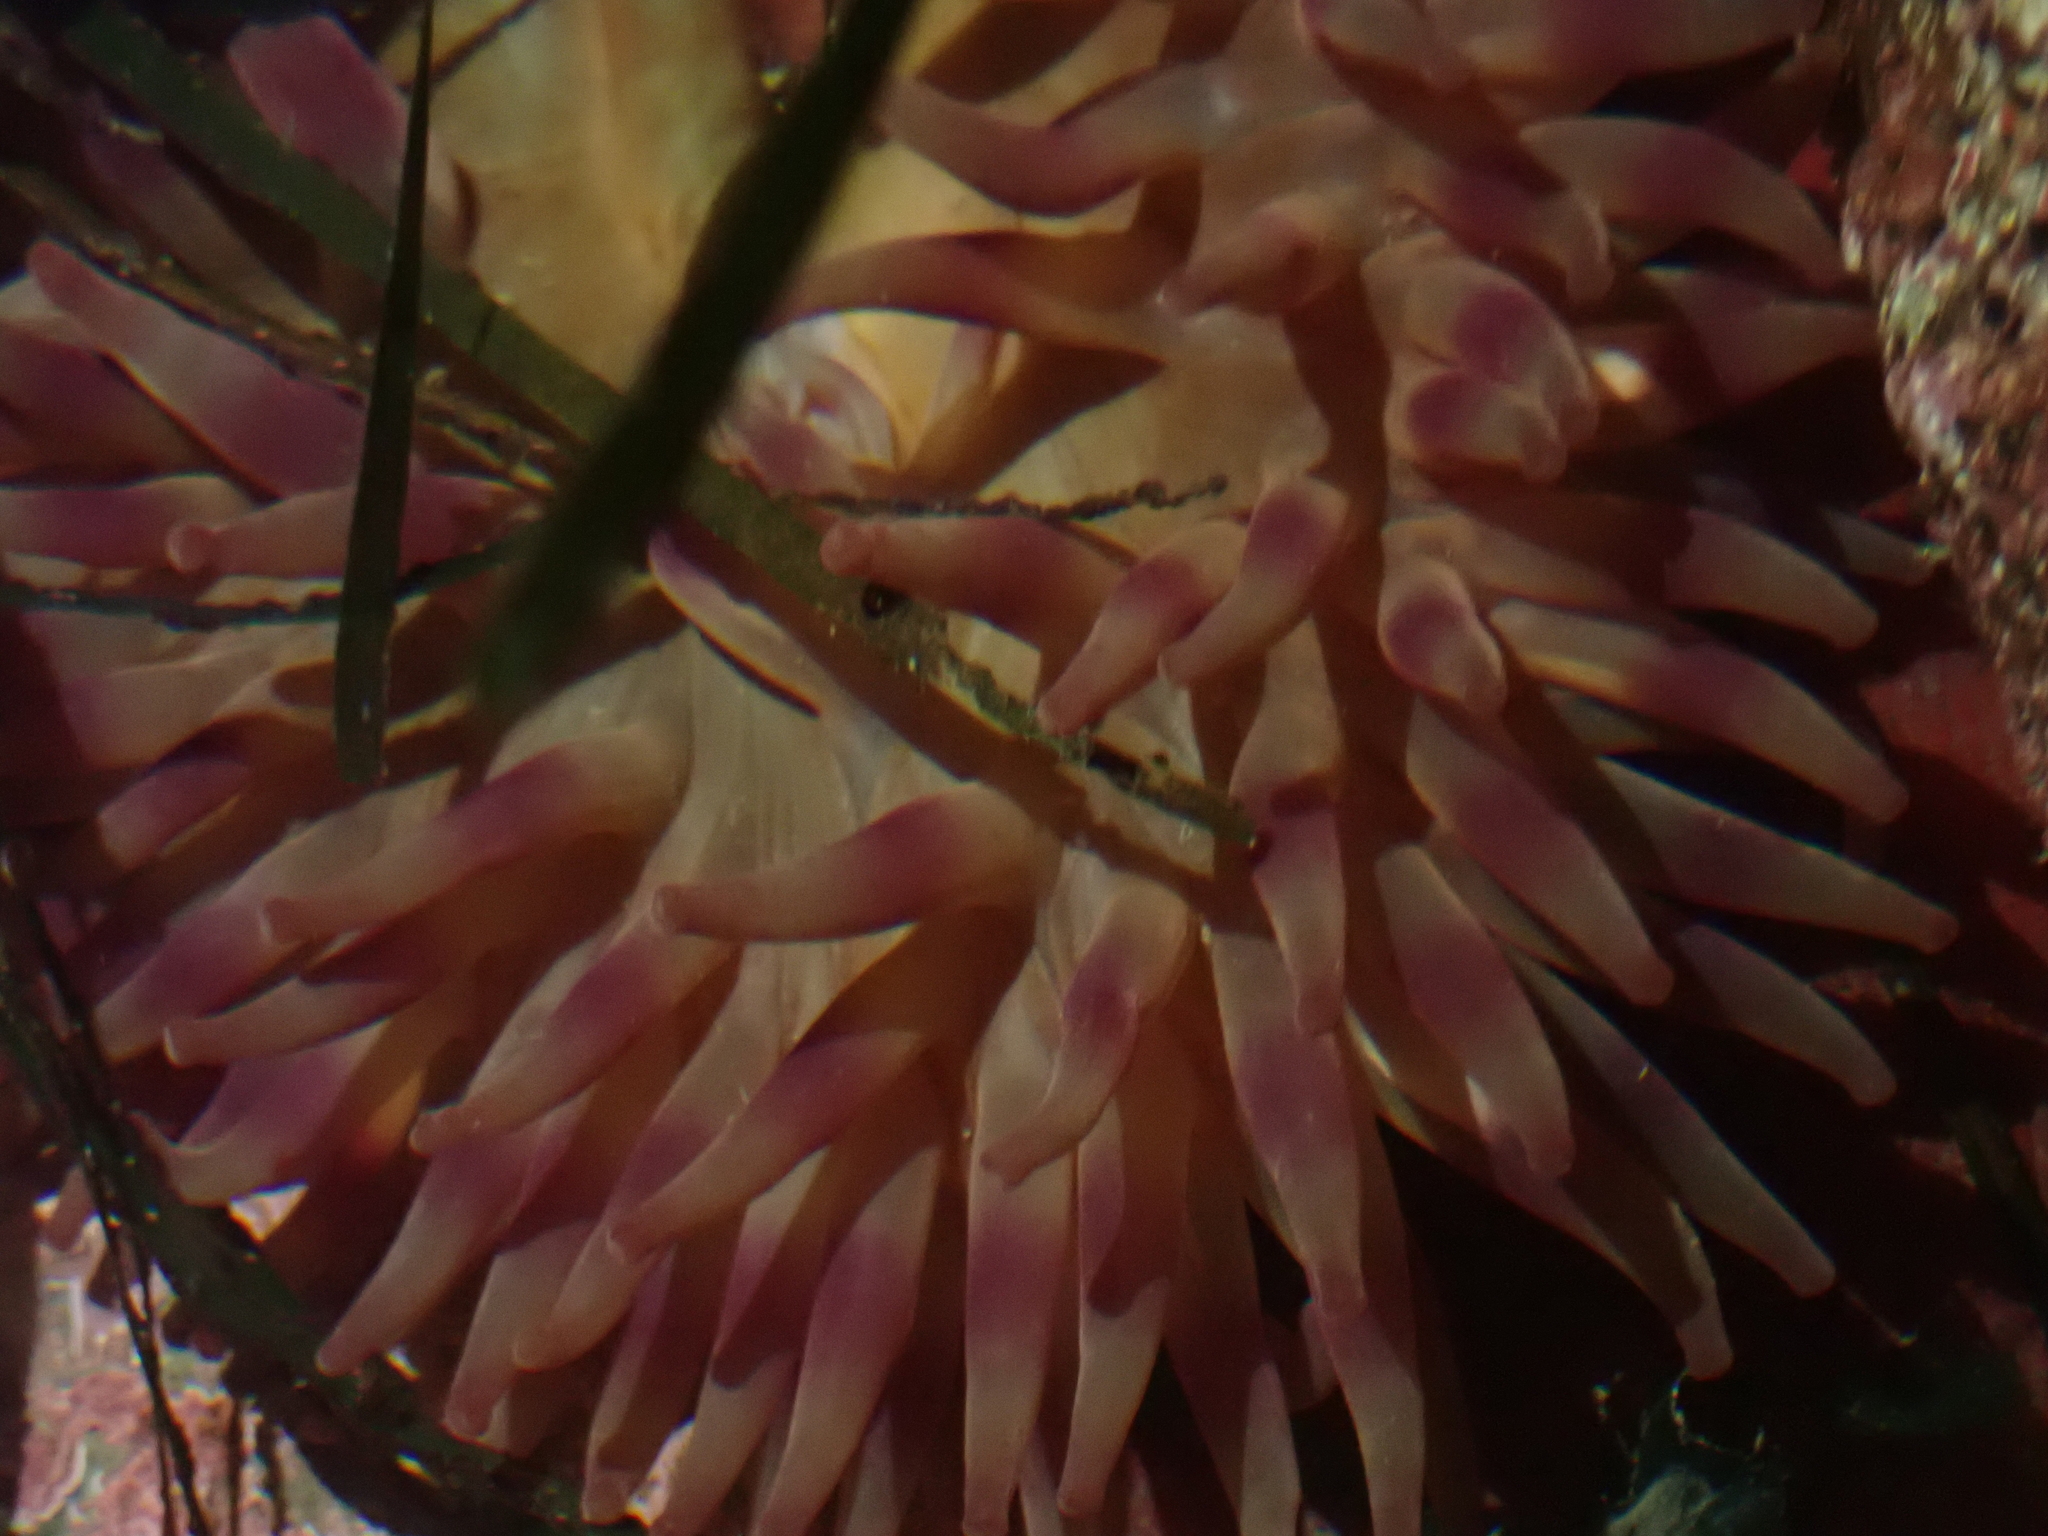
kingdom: Animalia
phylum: Cnidaria
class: Anthozoa
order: Actiniaria
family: Actiniidae
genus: Urticina
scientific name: Urticina grebelnyi
